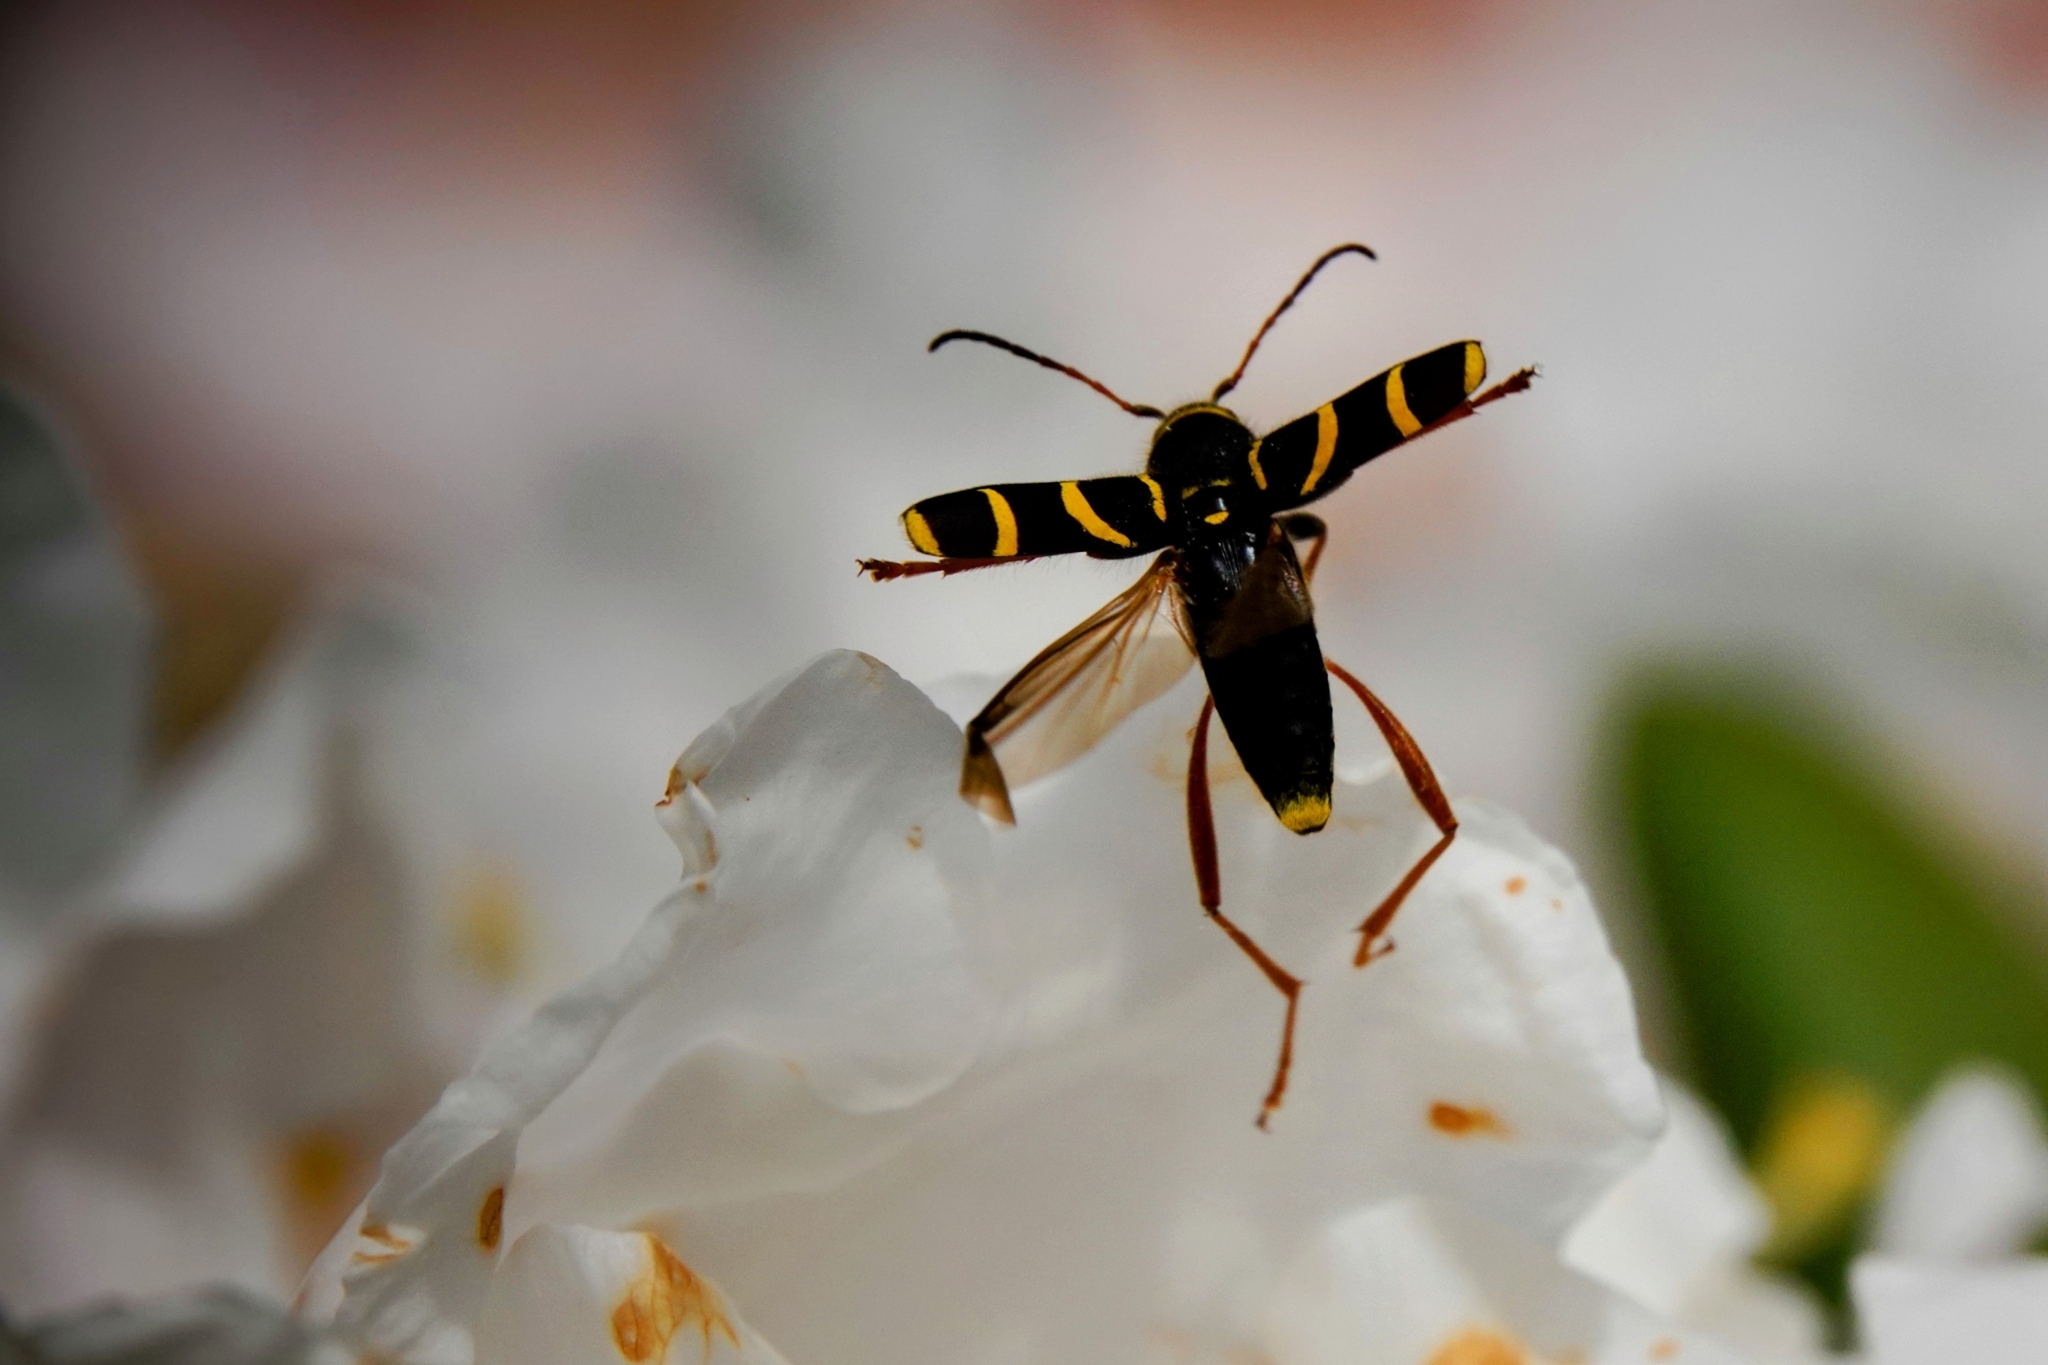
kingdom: Animalia
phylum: Arthropoda
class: Insecta
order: Coleoptera
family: Cerambycidae
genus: Clytus
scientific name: Clytus arietis
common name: Wasp beetle
